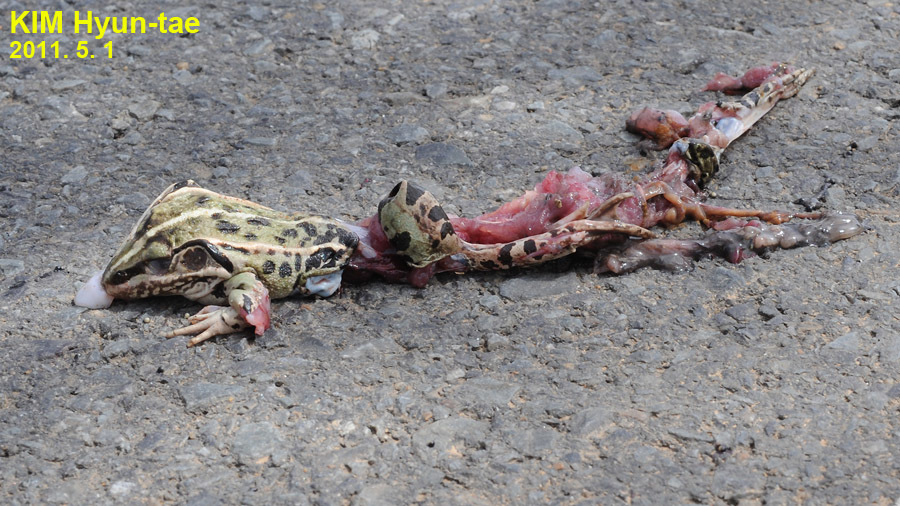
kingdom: Animalia
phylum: Chordata
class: Amphibia
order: Anura
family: Ranidae
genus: Pelophylax
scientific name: Pelophylax nigromaculatus
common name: Black-spotted pond frog
